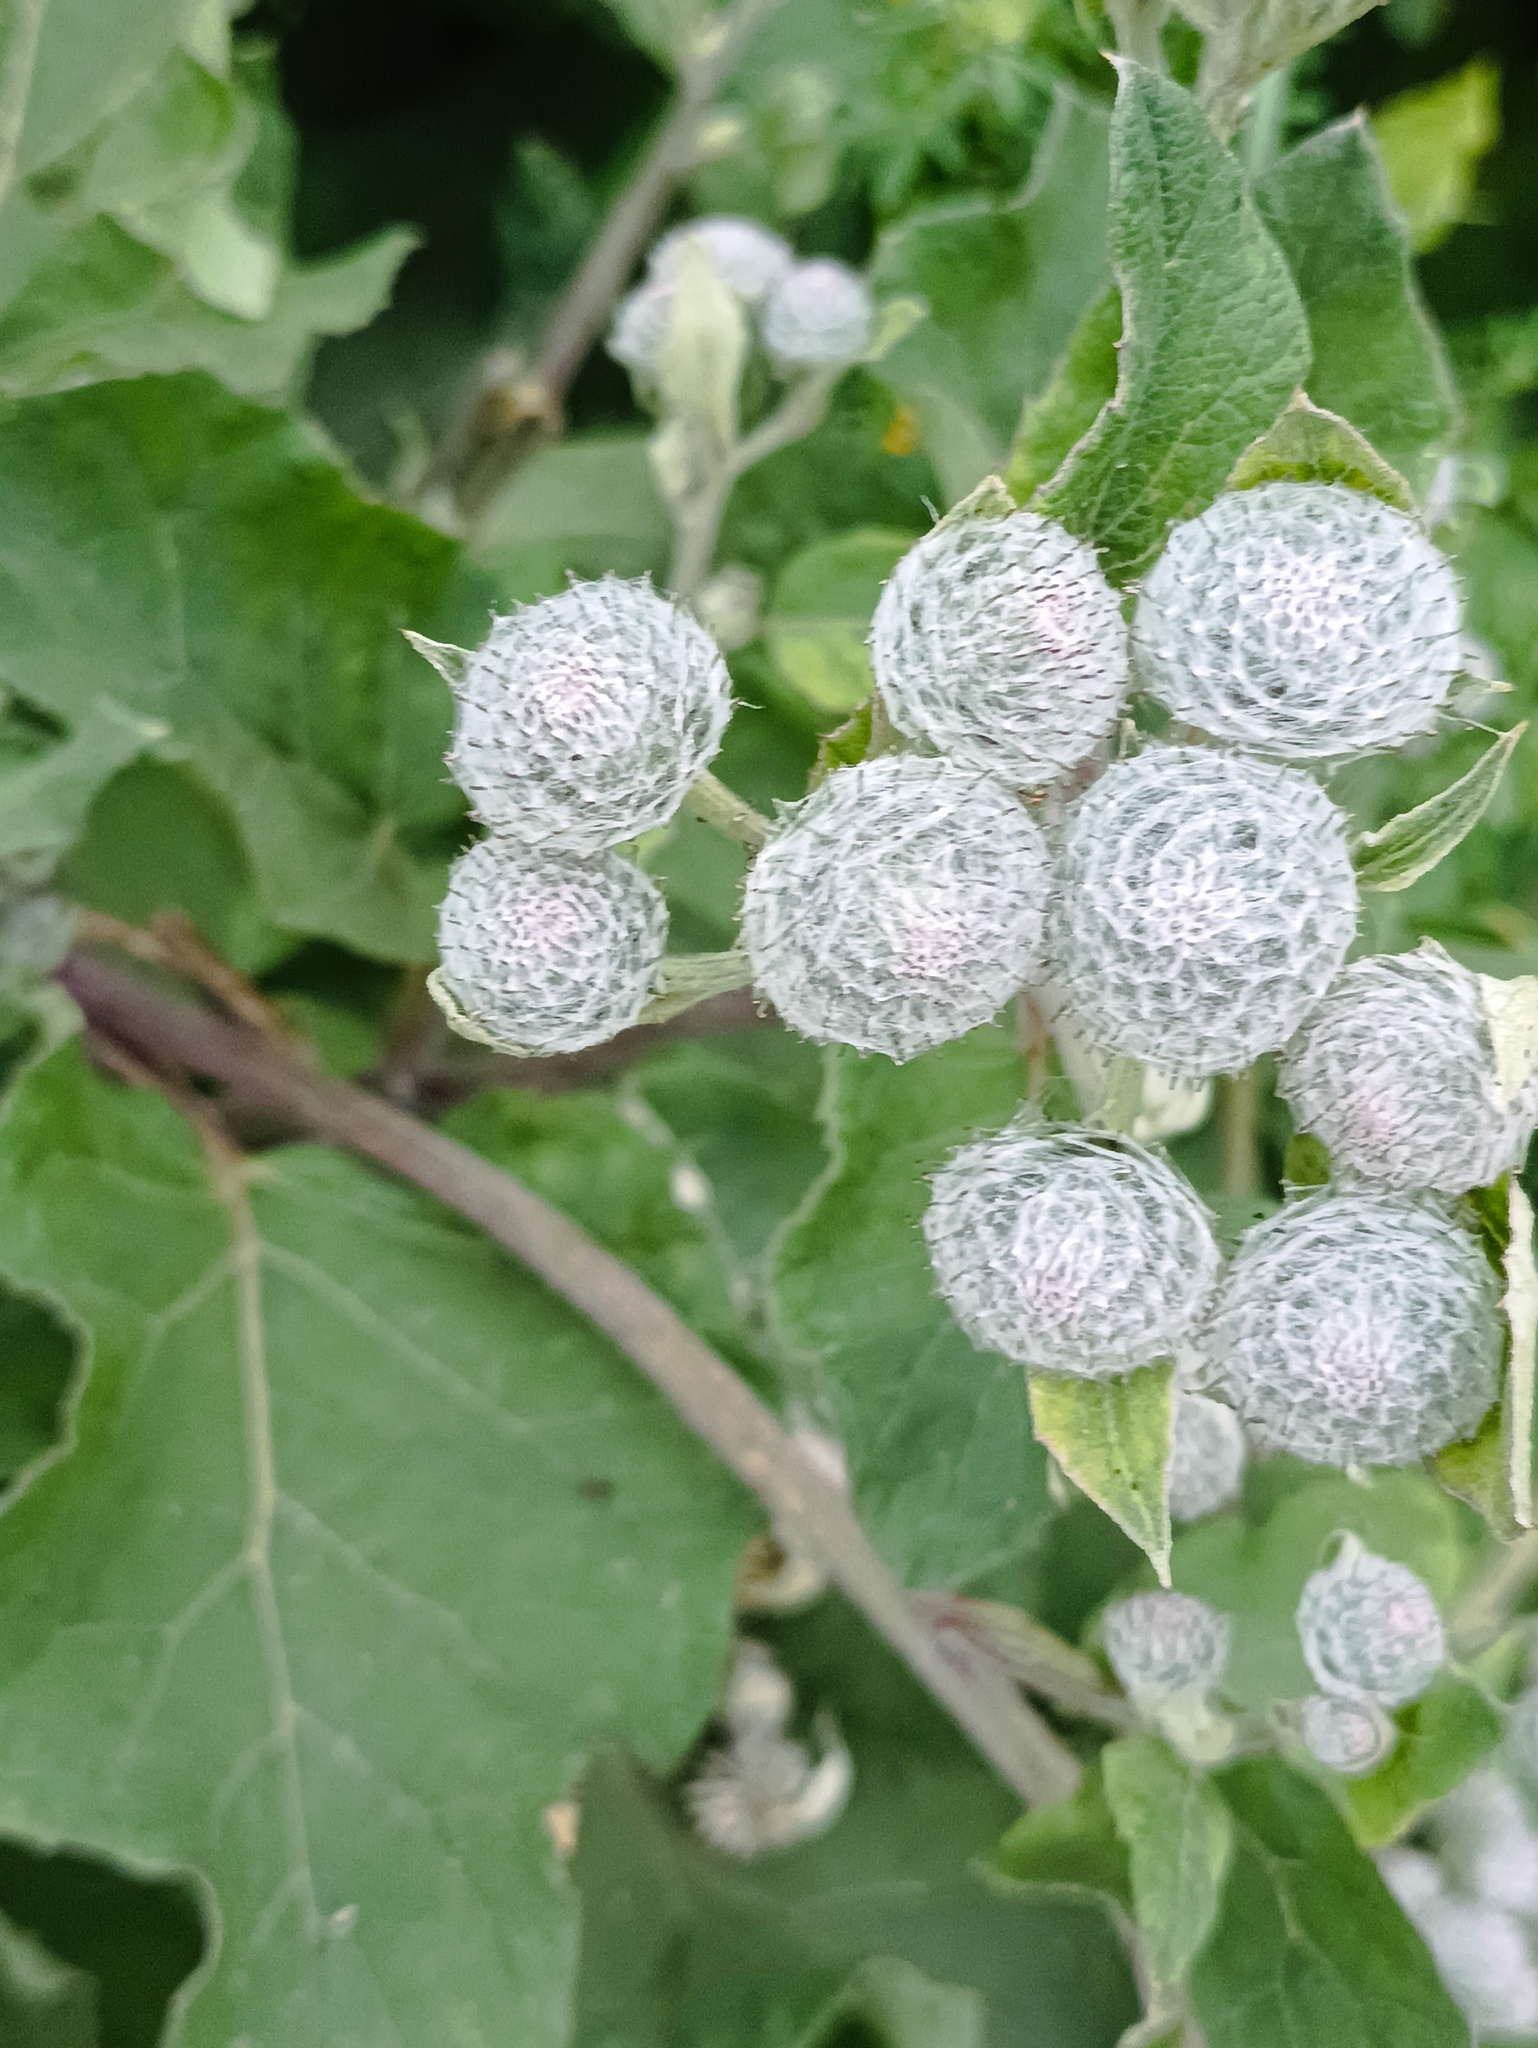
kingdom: Plantae
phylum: Tracheophyta
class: Magnoliopsida
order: Asterales
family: Asteraceae
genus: Arctium
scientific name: Arctium tomentosum
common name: Woolly burdock
